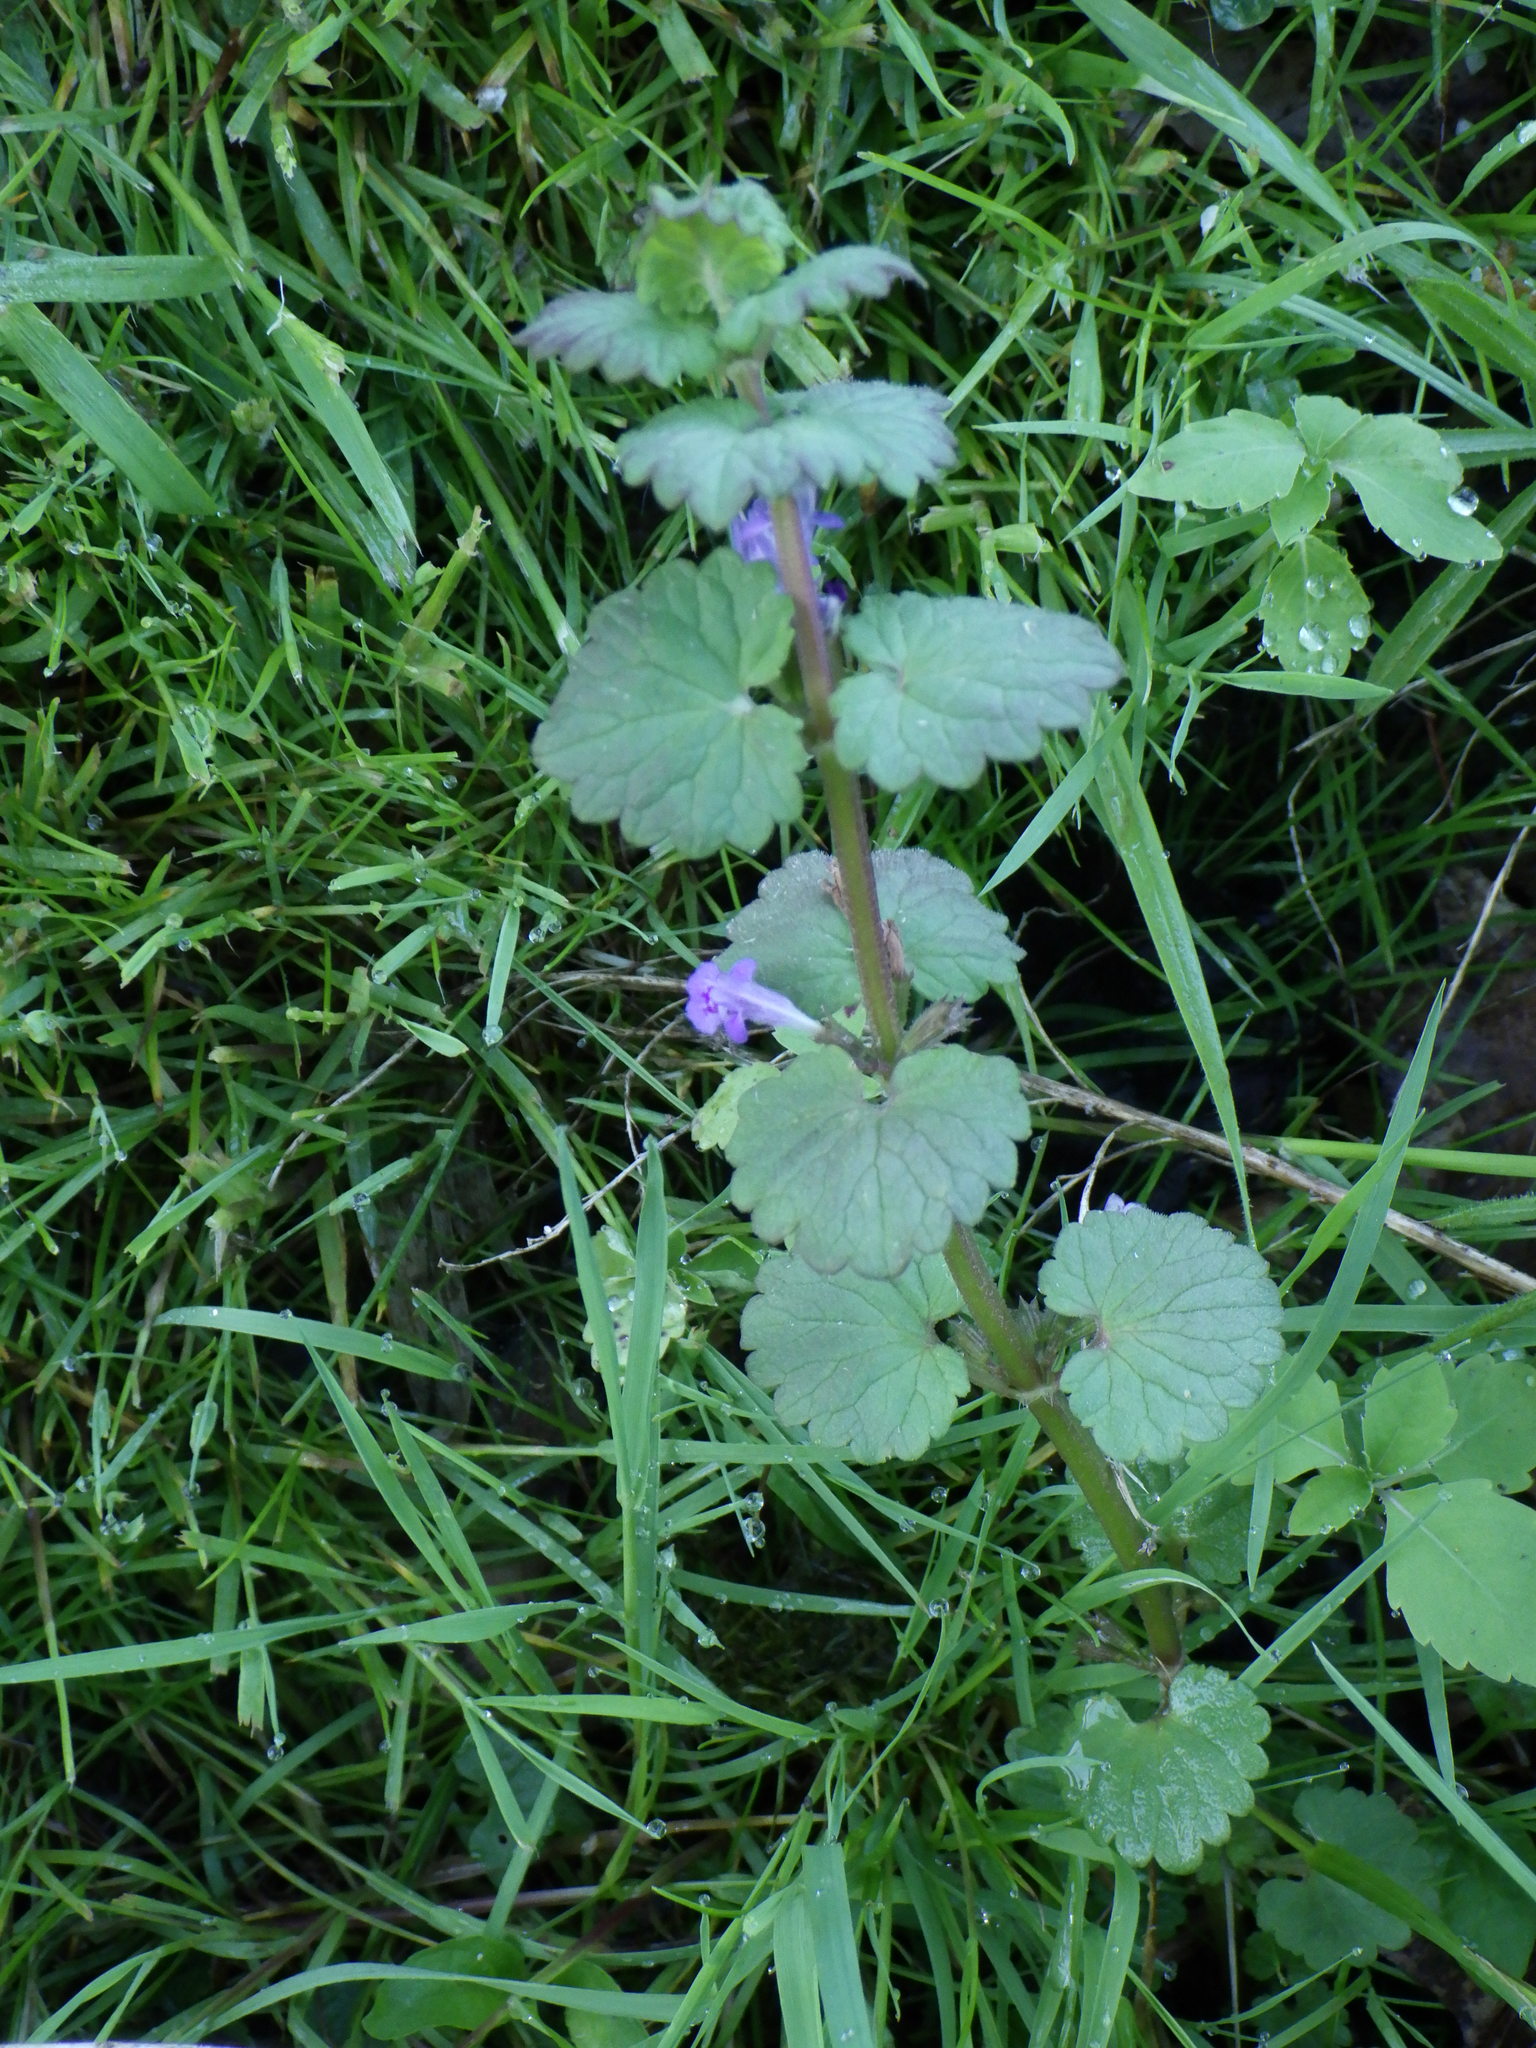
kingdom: Plantae
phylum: Tracheophyta
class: Magnoliopsida
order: Lamiales
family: Lamiaceae
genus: Glechoma
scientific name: Glechoma hederacea
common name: Ground ivy
